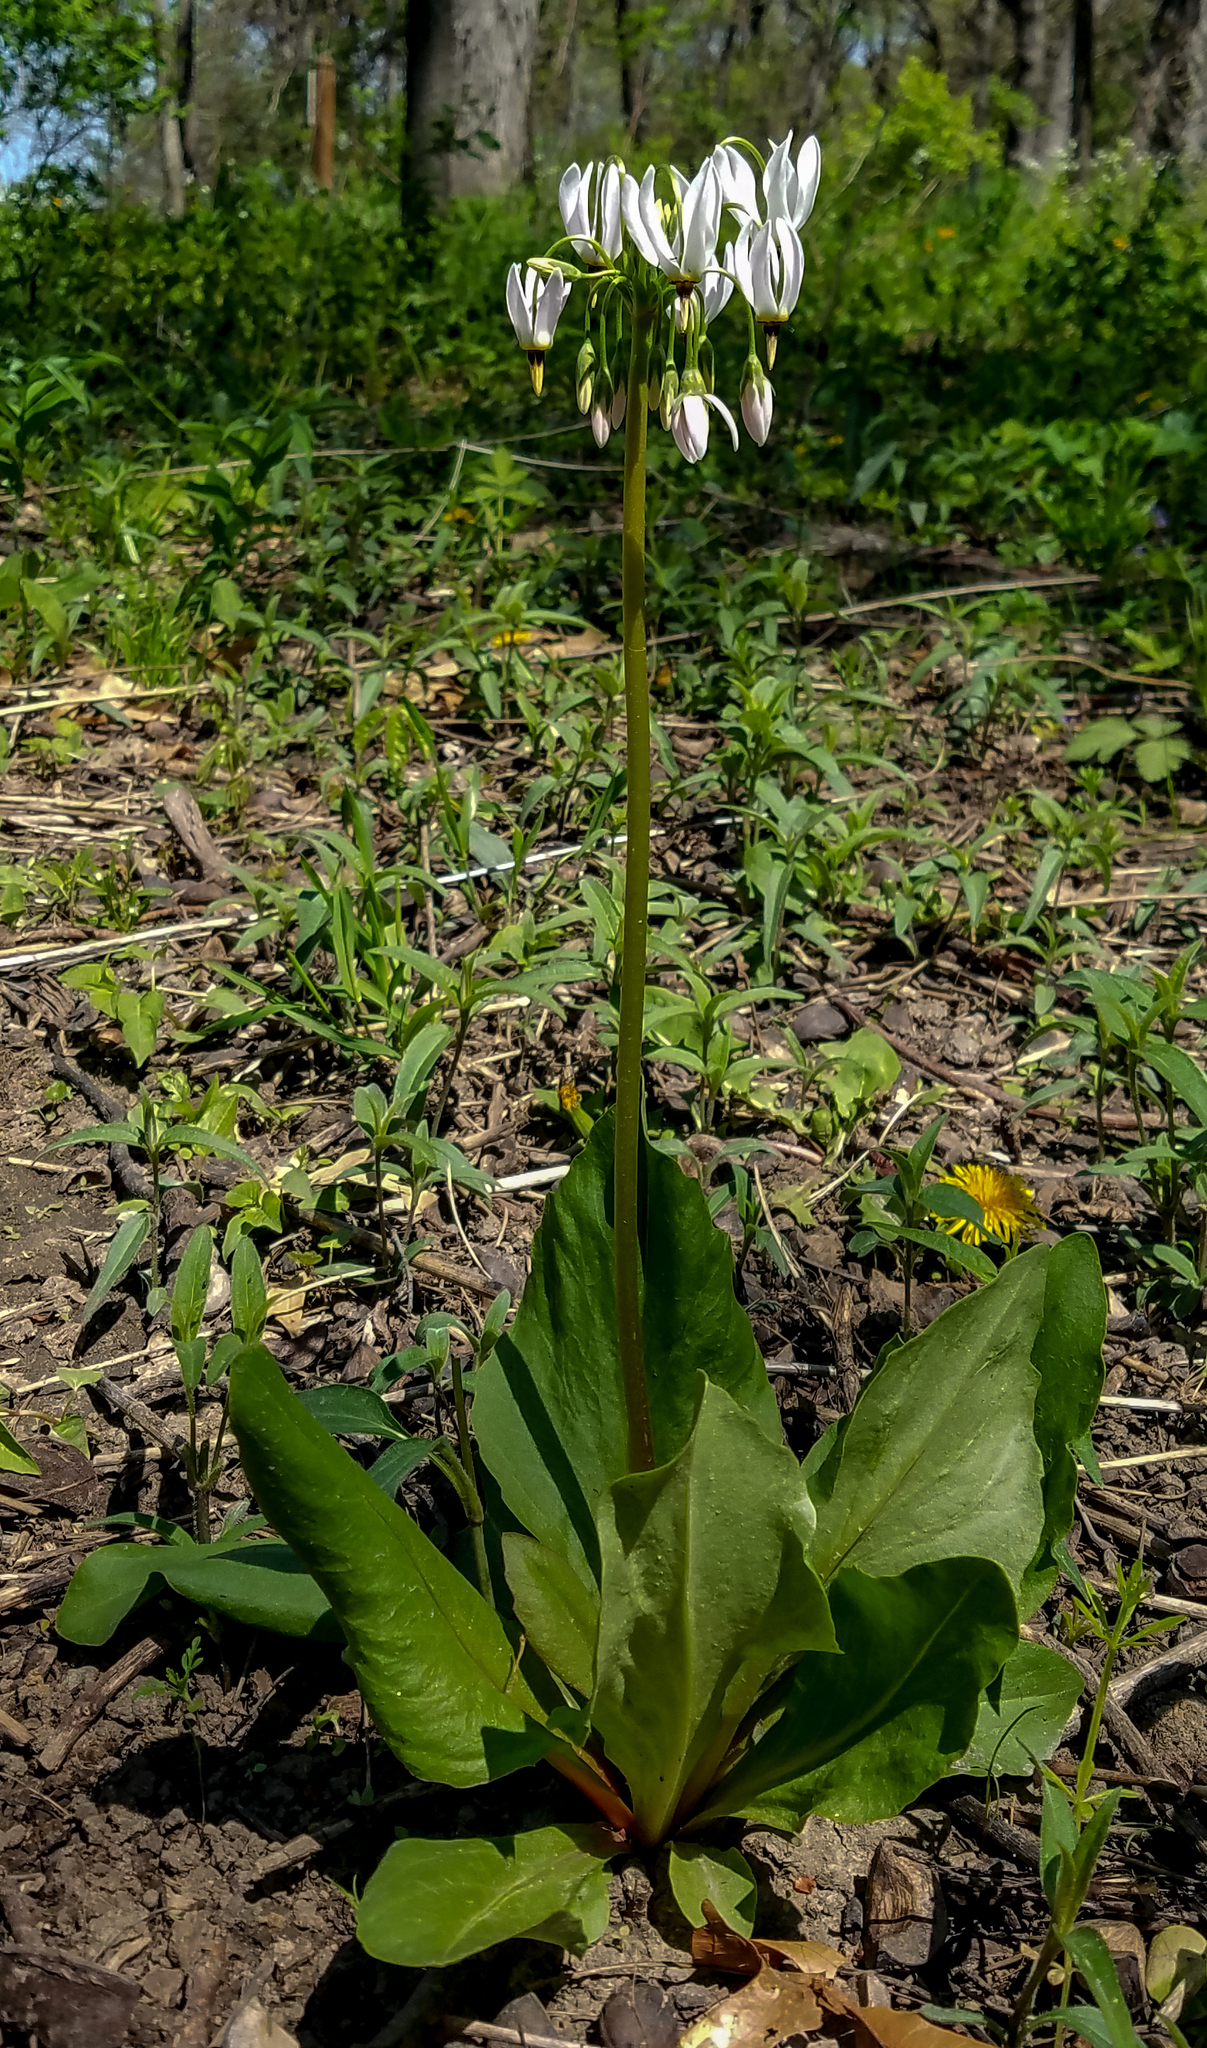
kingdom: Plantae
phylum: Tracheophyta
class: Magnoliopsida
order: Ericales
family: Primulaceae
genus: Dodecatheon
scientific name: Dodecatheon meadia
